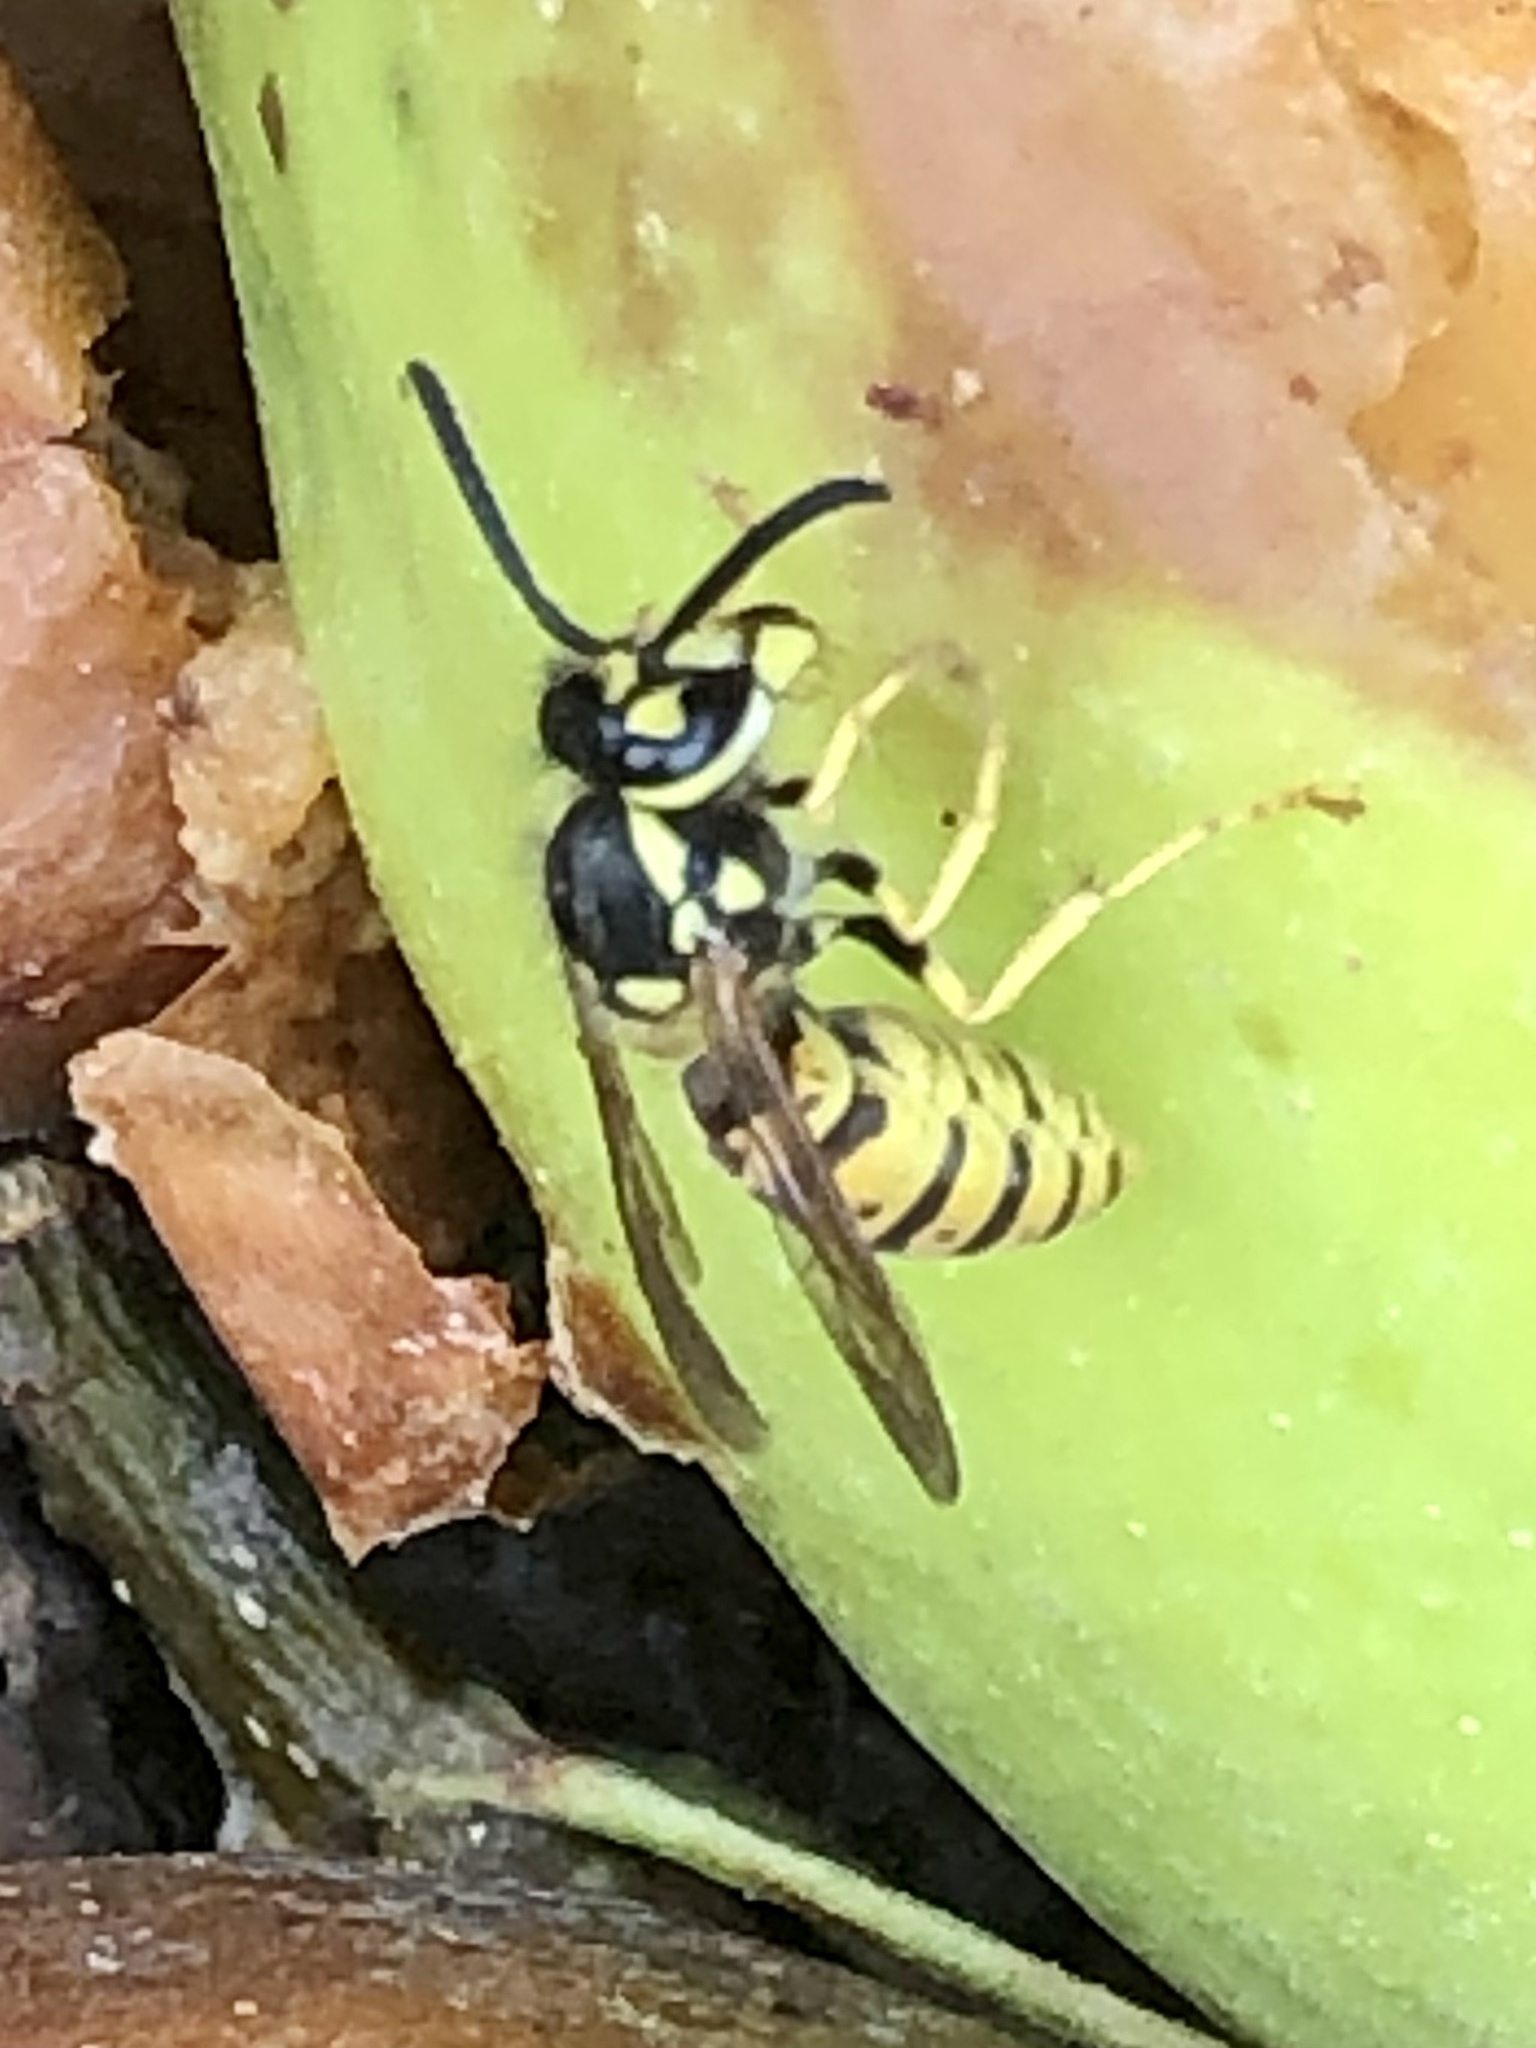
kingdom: Animalia
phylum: Arthropoda
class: Insecta
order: Hymenoptera
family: Vespidae
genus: Vespula
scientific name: Vespula germanica
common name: German wasp
